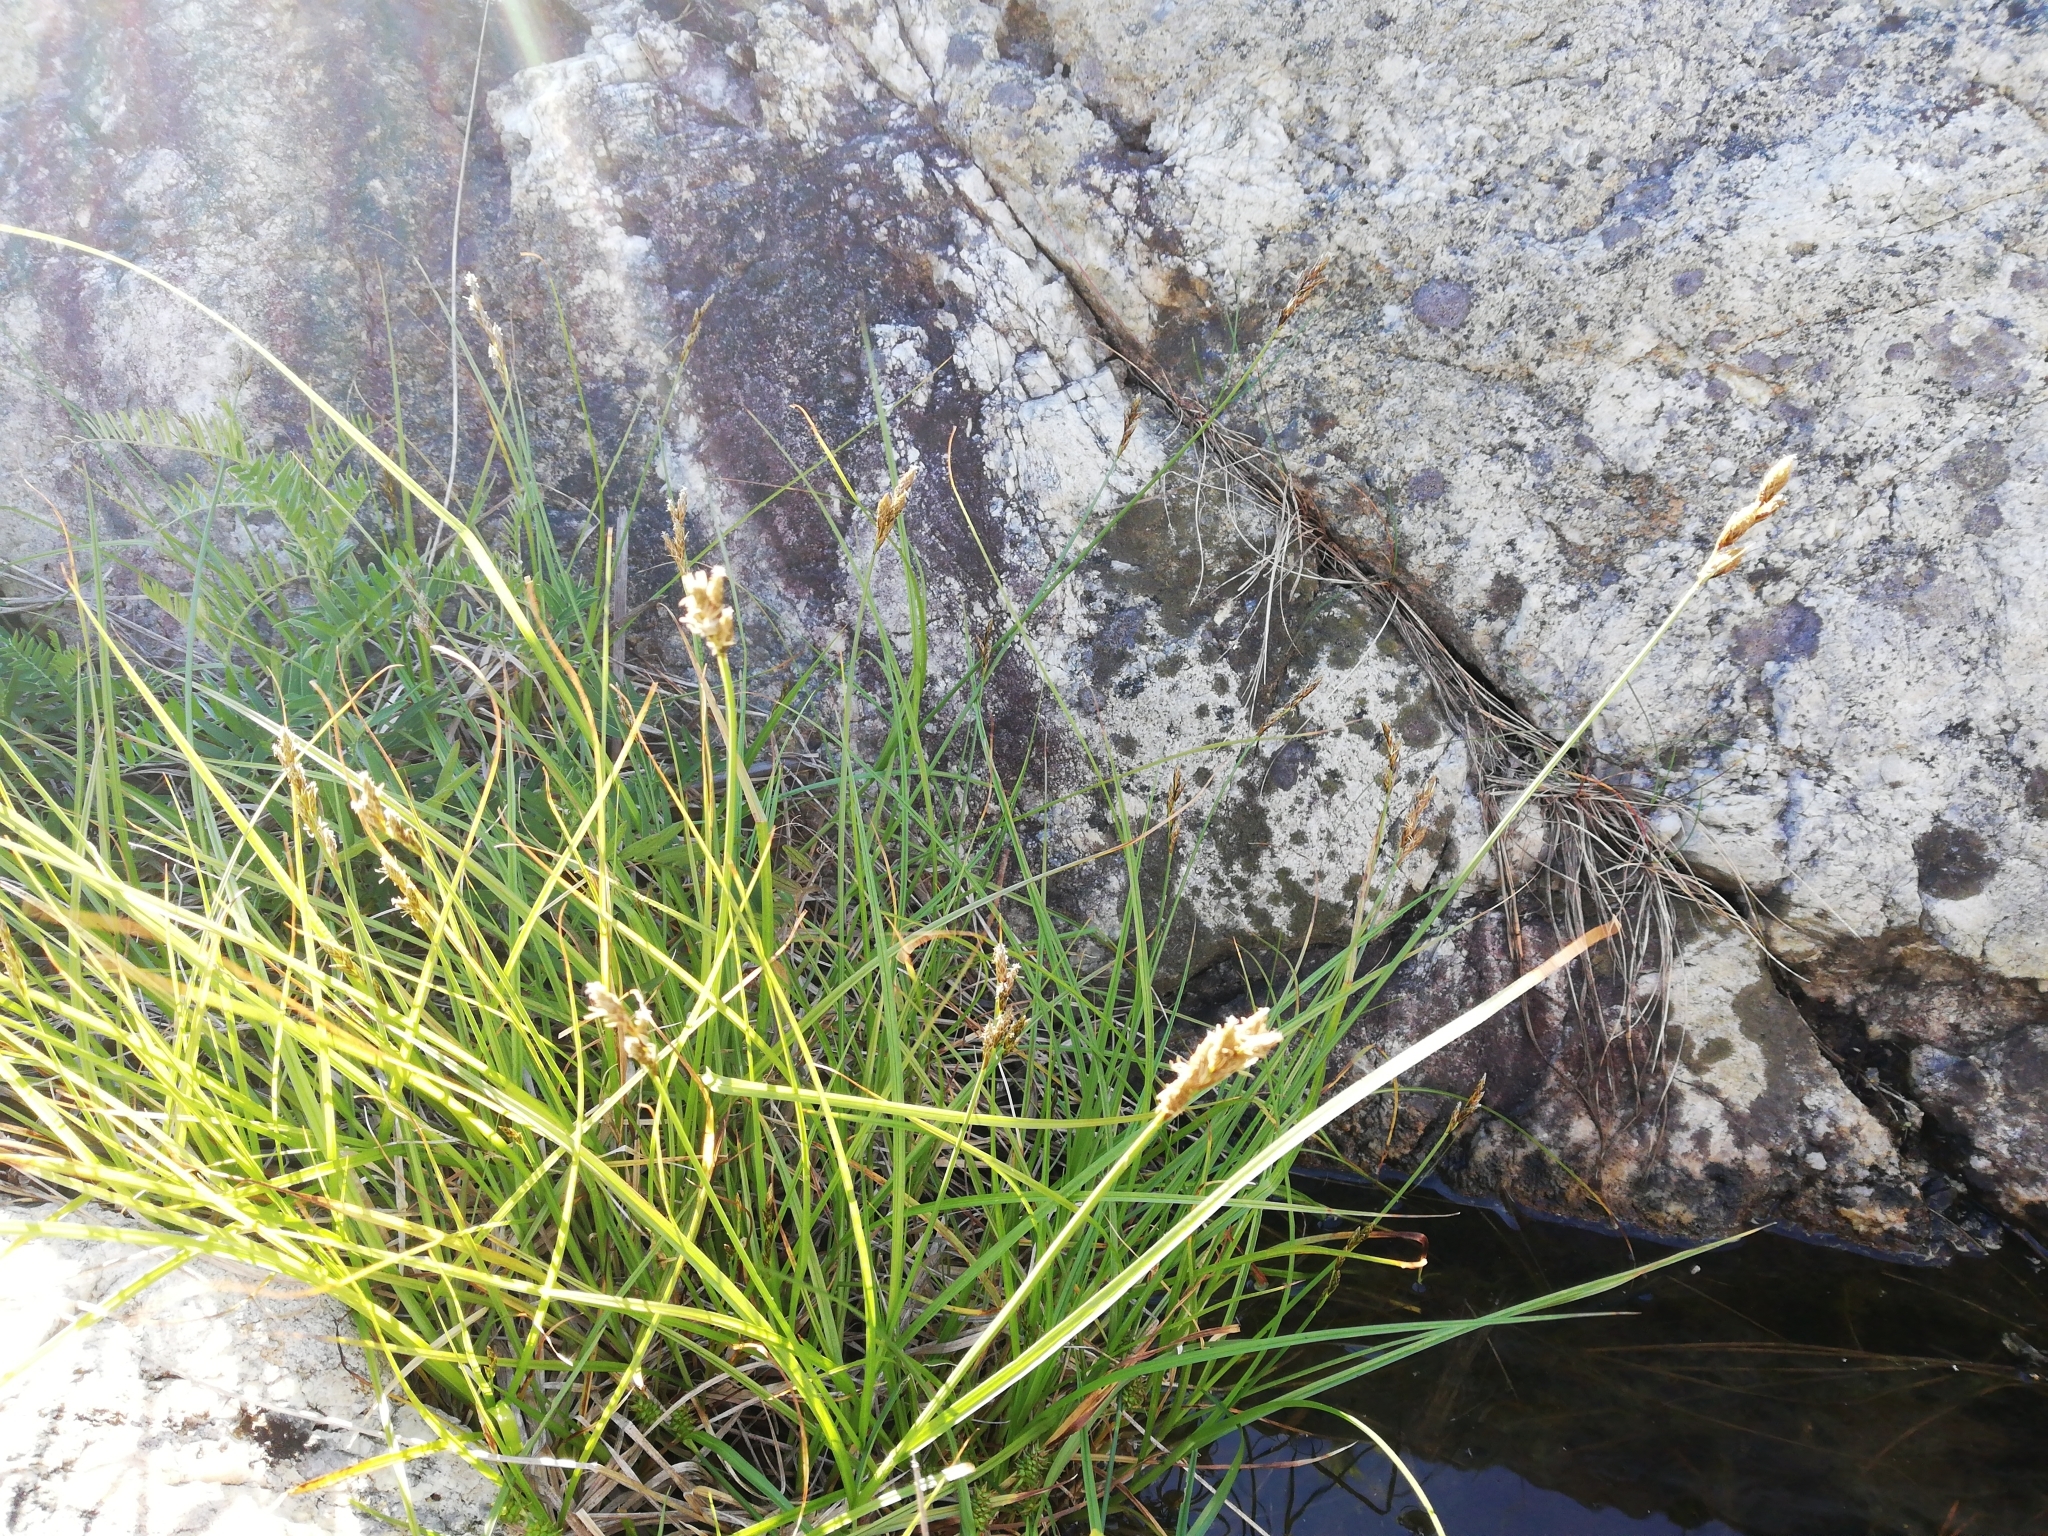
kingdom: Plantae
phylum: Tracheophyta
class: Liliopsida
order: Poales
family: Cyperaceae
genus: Carex
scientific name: Carex leporina
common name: Oval sedge
